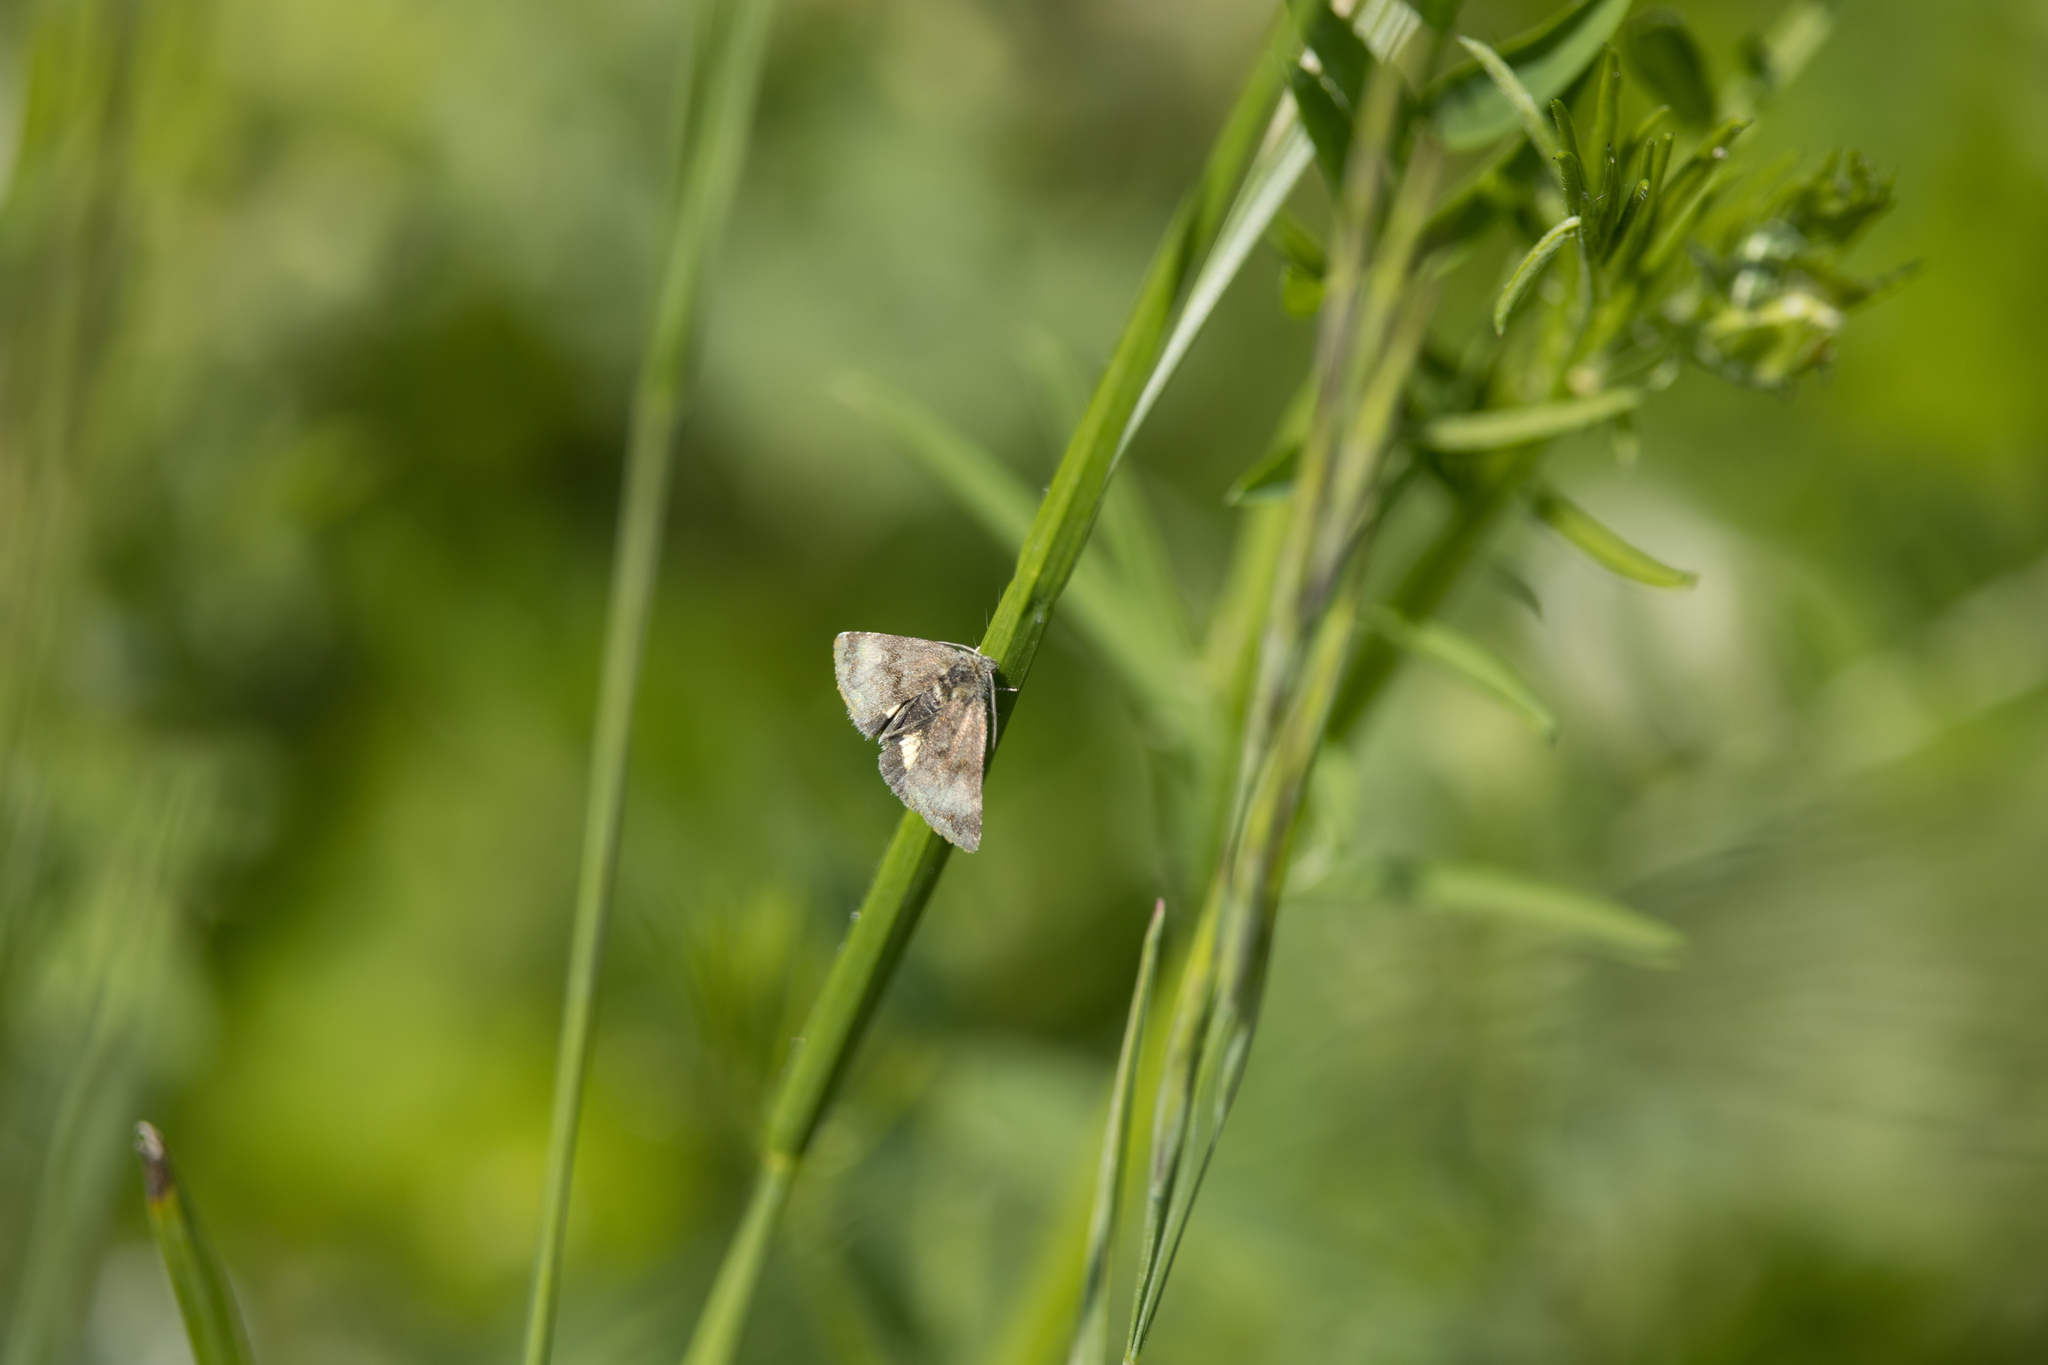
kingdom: Animalia
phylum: Arthropoda
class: Insecta
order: Lepidoptera
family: Noctuidae
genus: Panemeria
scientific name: Panemeria tenebrata
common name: Small yellow underwing
